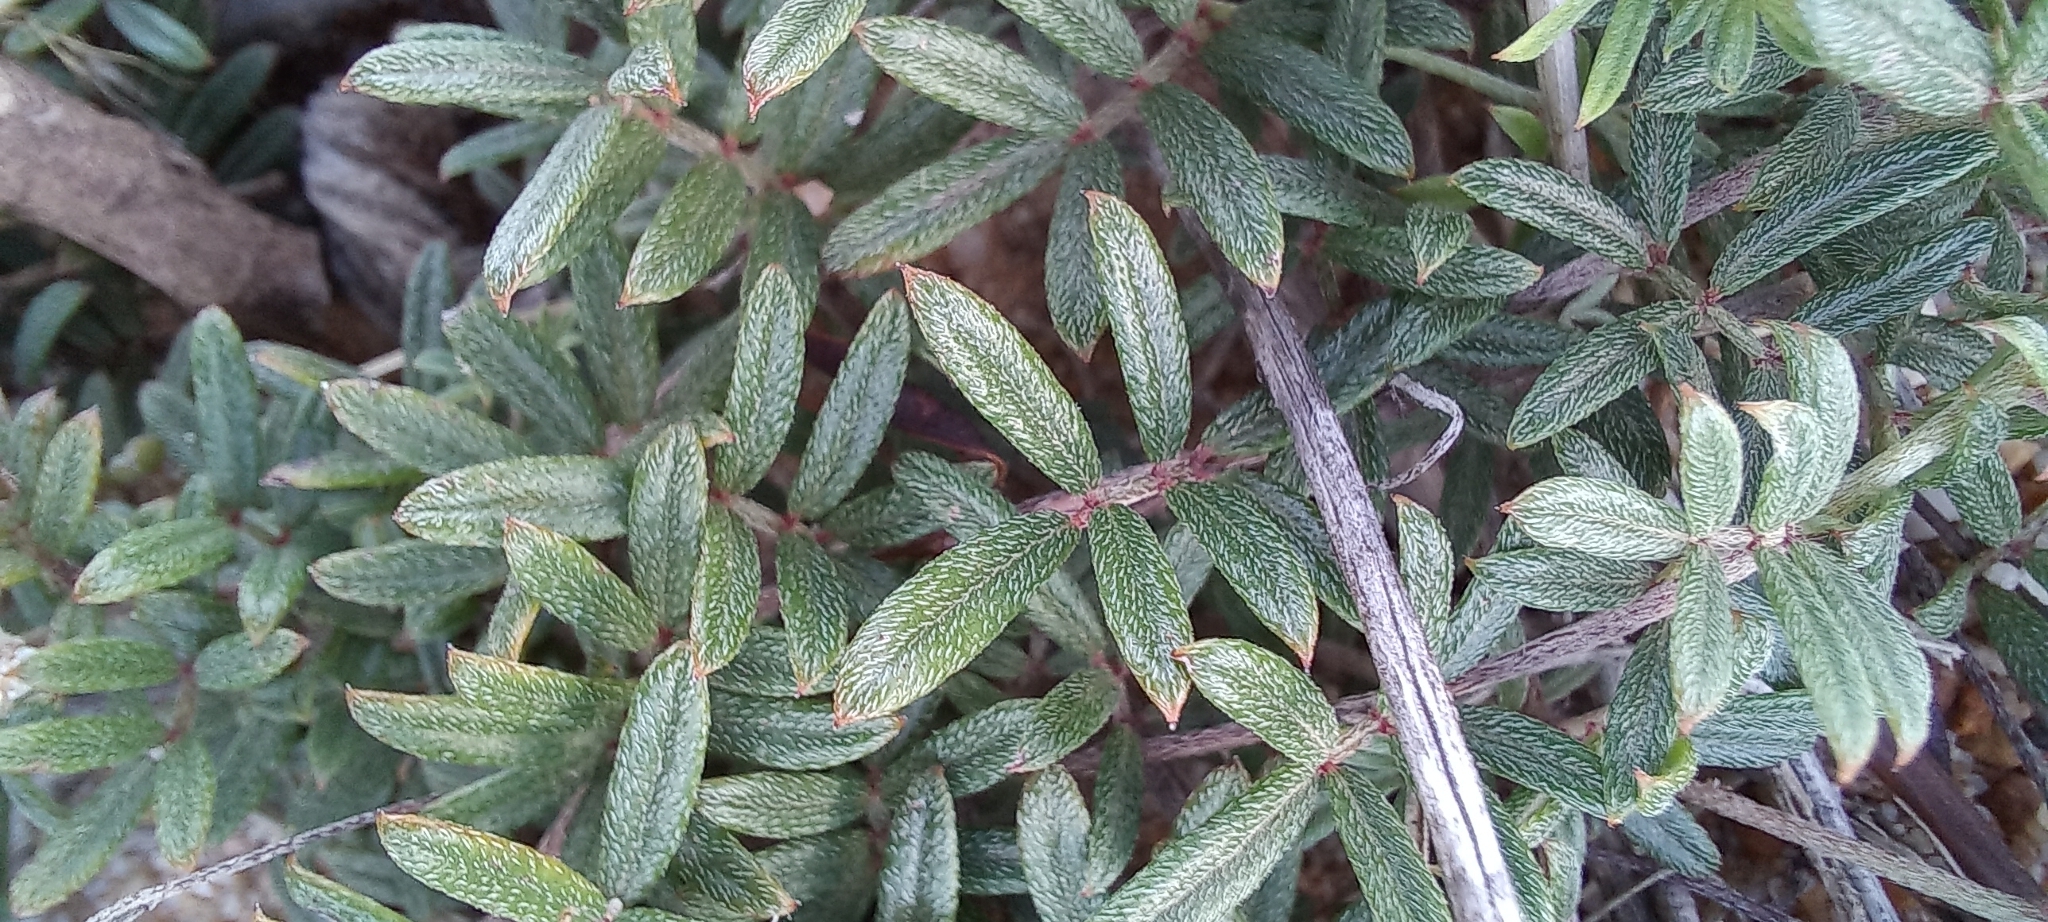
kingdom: Plantae
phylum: Tracheophyta
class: Magnoliopsida
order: Fabales
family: Fabaceae
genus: Indigofera
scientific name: Indigofera angustifolia
